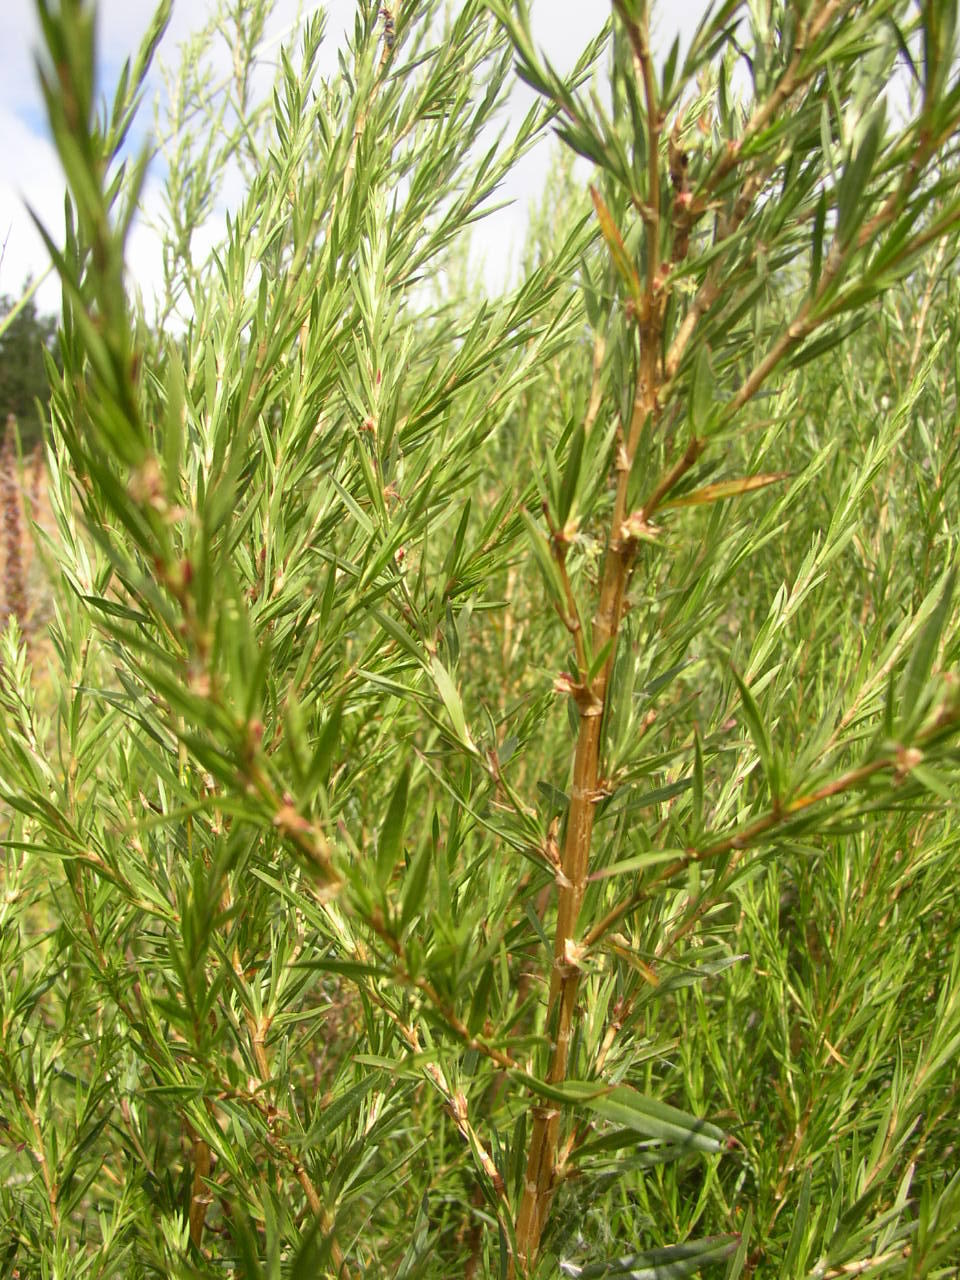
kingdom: Plantae
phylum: Tracheophyta
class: Magnoliopsida
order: Rosales
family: Rosaceae
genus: Cliffortia
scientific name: Cliffortia strobilifera
